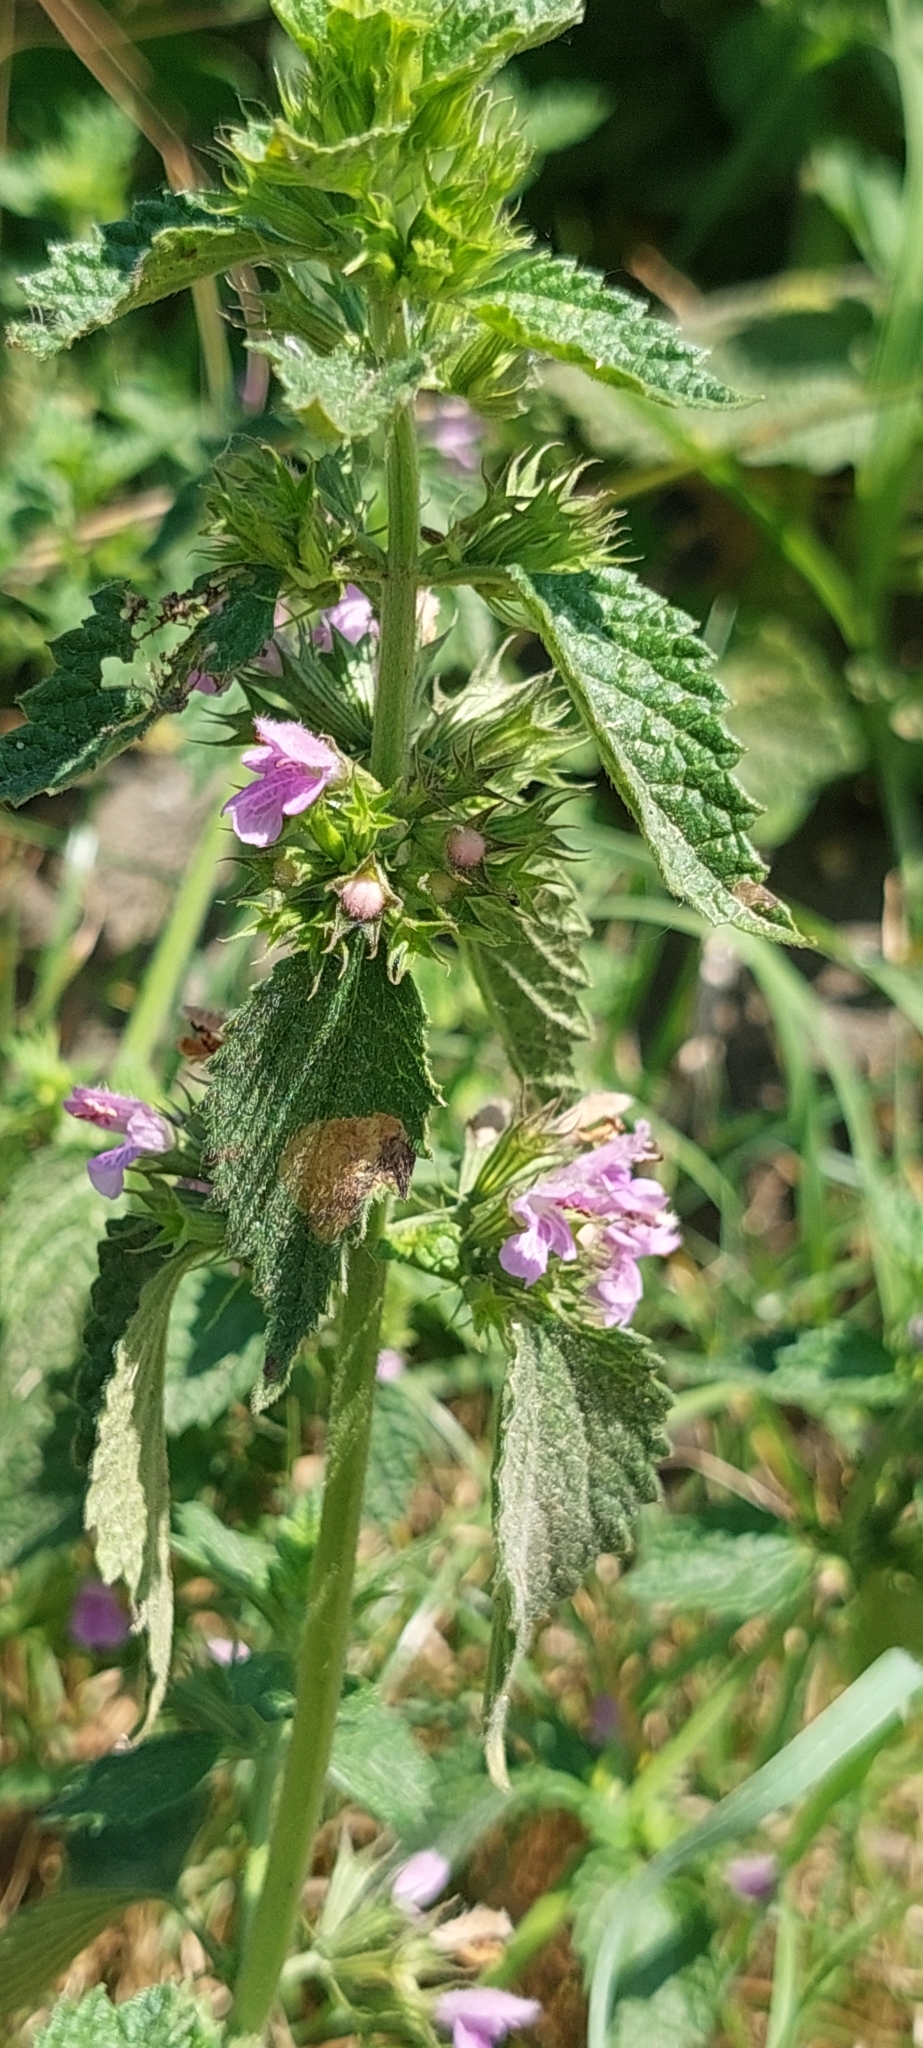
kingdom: Plantae
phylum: Tracheophyta
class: Magnoliopsida
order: Lamiales
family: Lamiaceae
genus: Ballota
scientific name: Ballota nigra
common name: Black horehound
